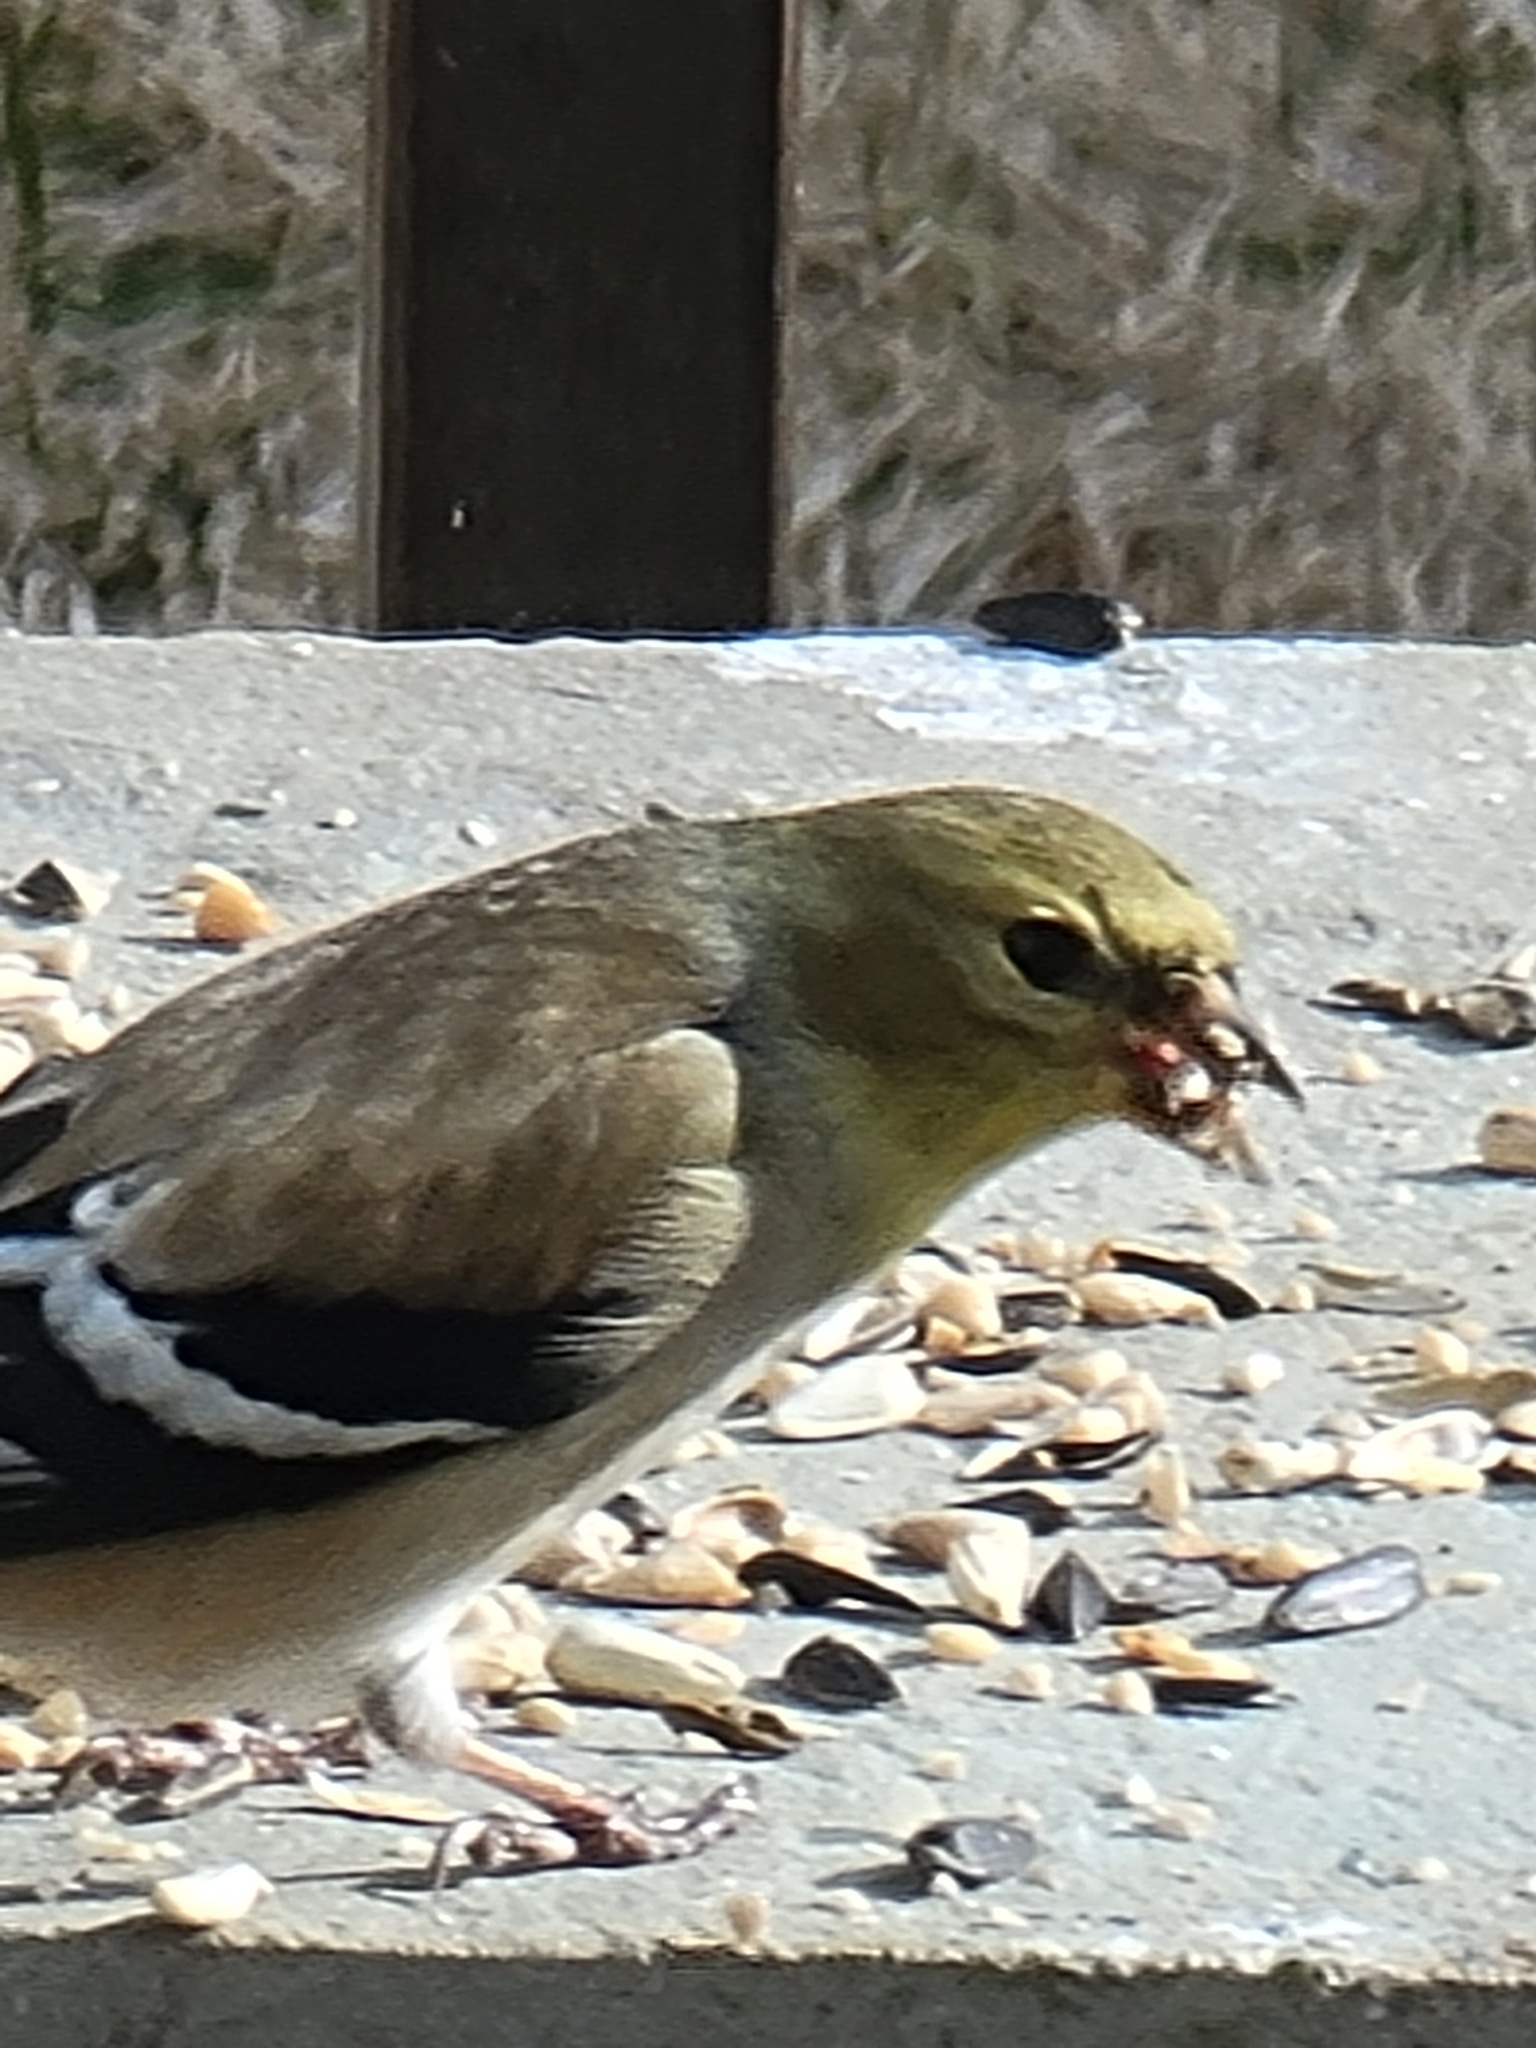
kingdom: Animalia
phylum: Chordata
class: Aves
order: Passeriformes
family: Fringillidae
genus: Spinus
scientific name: Spinus tristis
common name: American goldfinch
